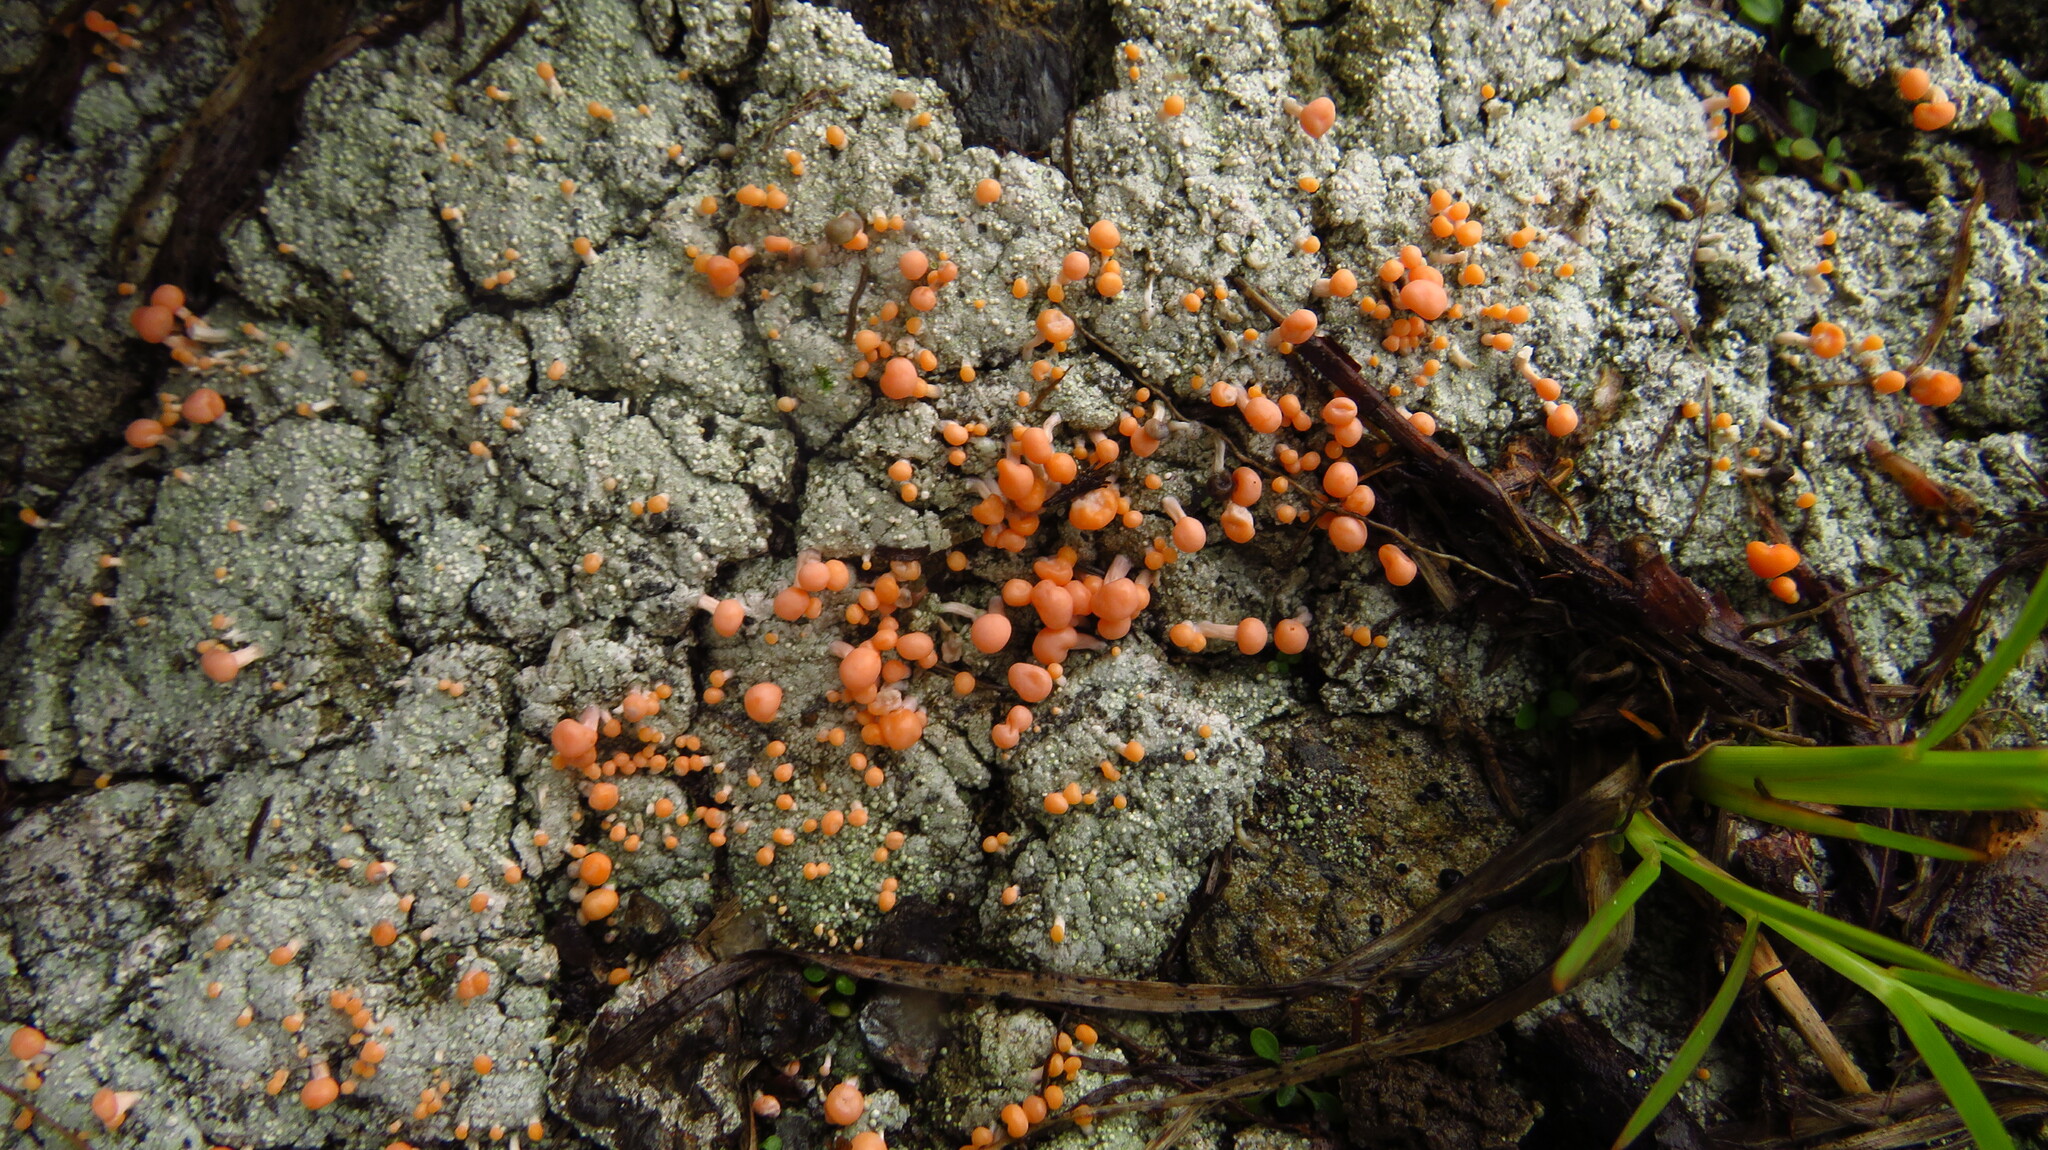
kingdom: Fungi
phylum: Ascomycota
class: Lecanoromycetes
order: Pertusariales
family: Icmadophilaceae
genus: Dibaeis
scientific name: Dibaeis baeomyces
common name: Pink earth lichen
